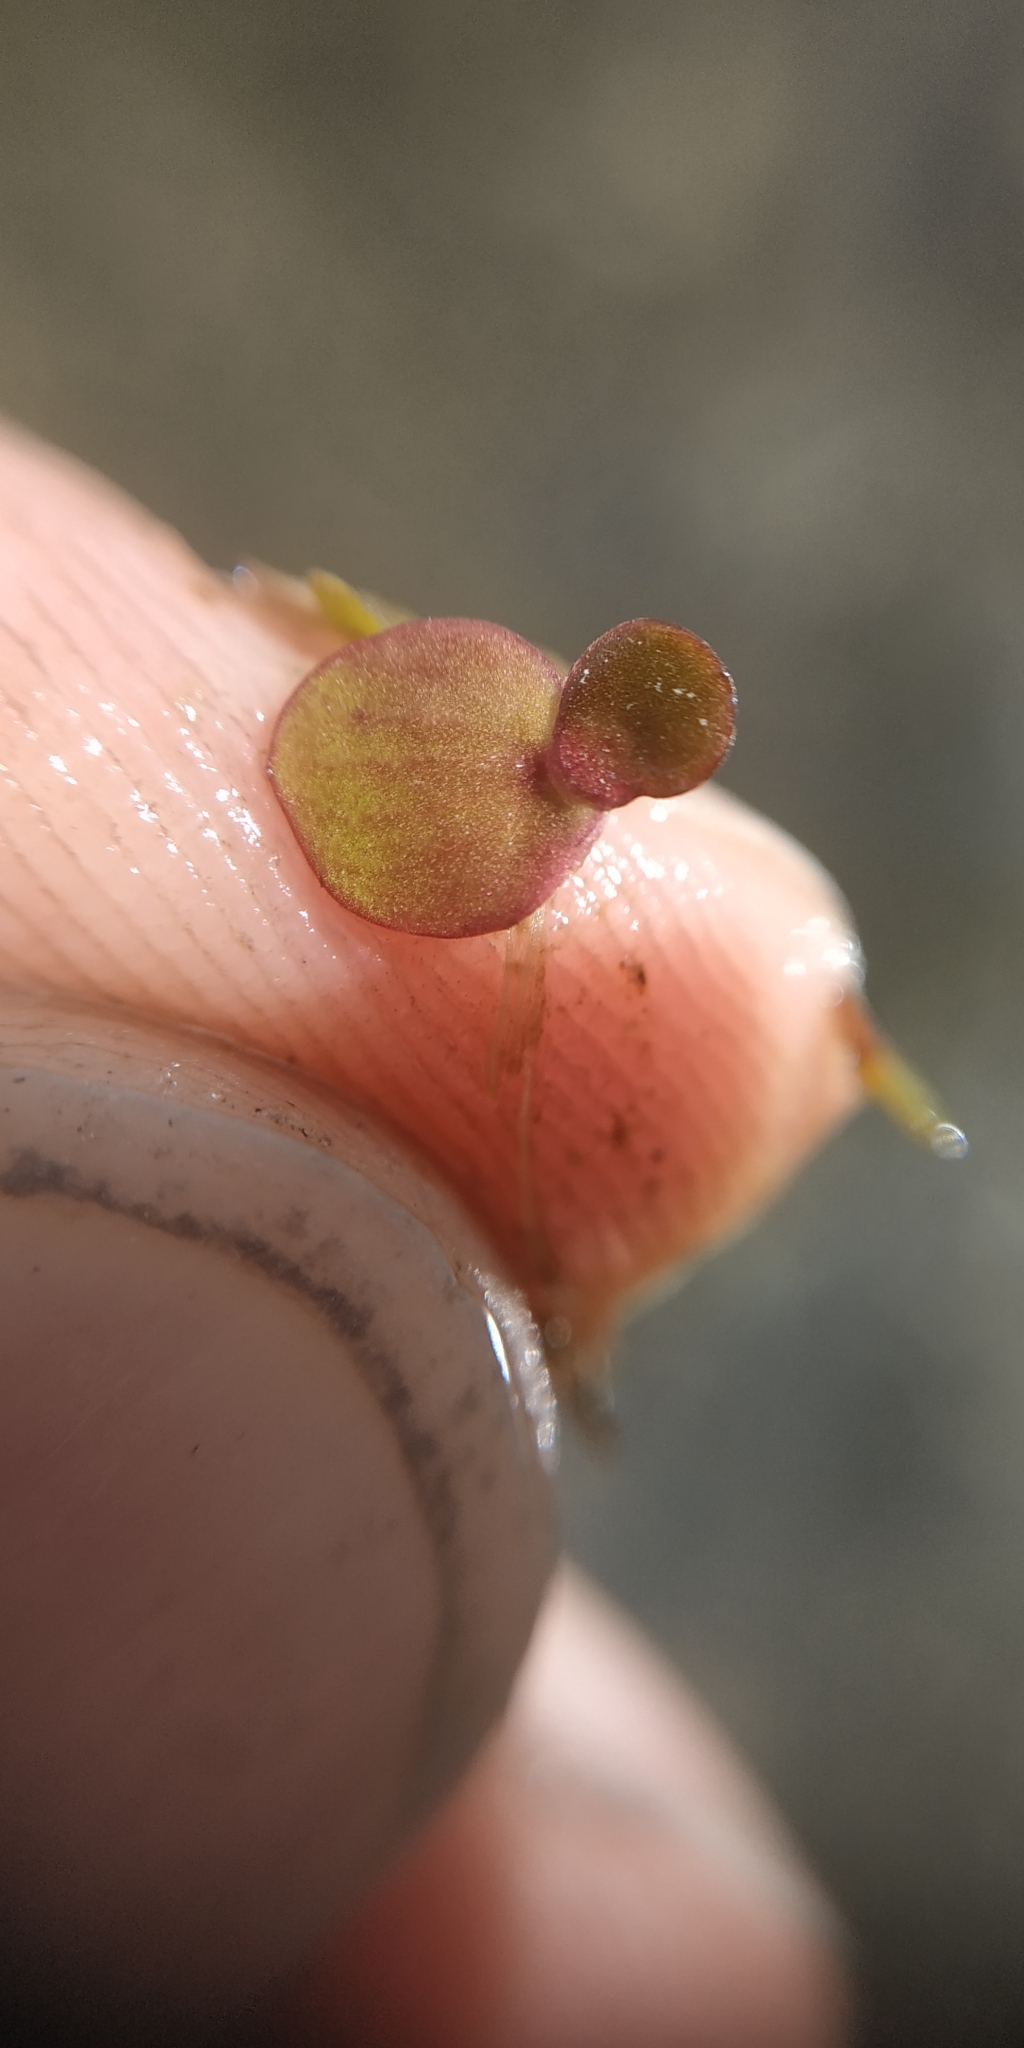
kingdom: Plantae
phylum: Tracheophyta
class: Liliopsida
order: Alismatales
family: Araceae
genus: Spirodela
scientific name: Spirodela polyrhiza
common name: Great duckweed
